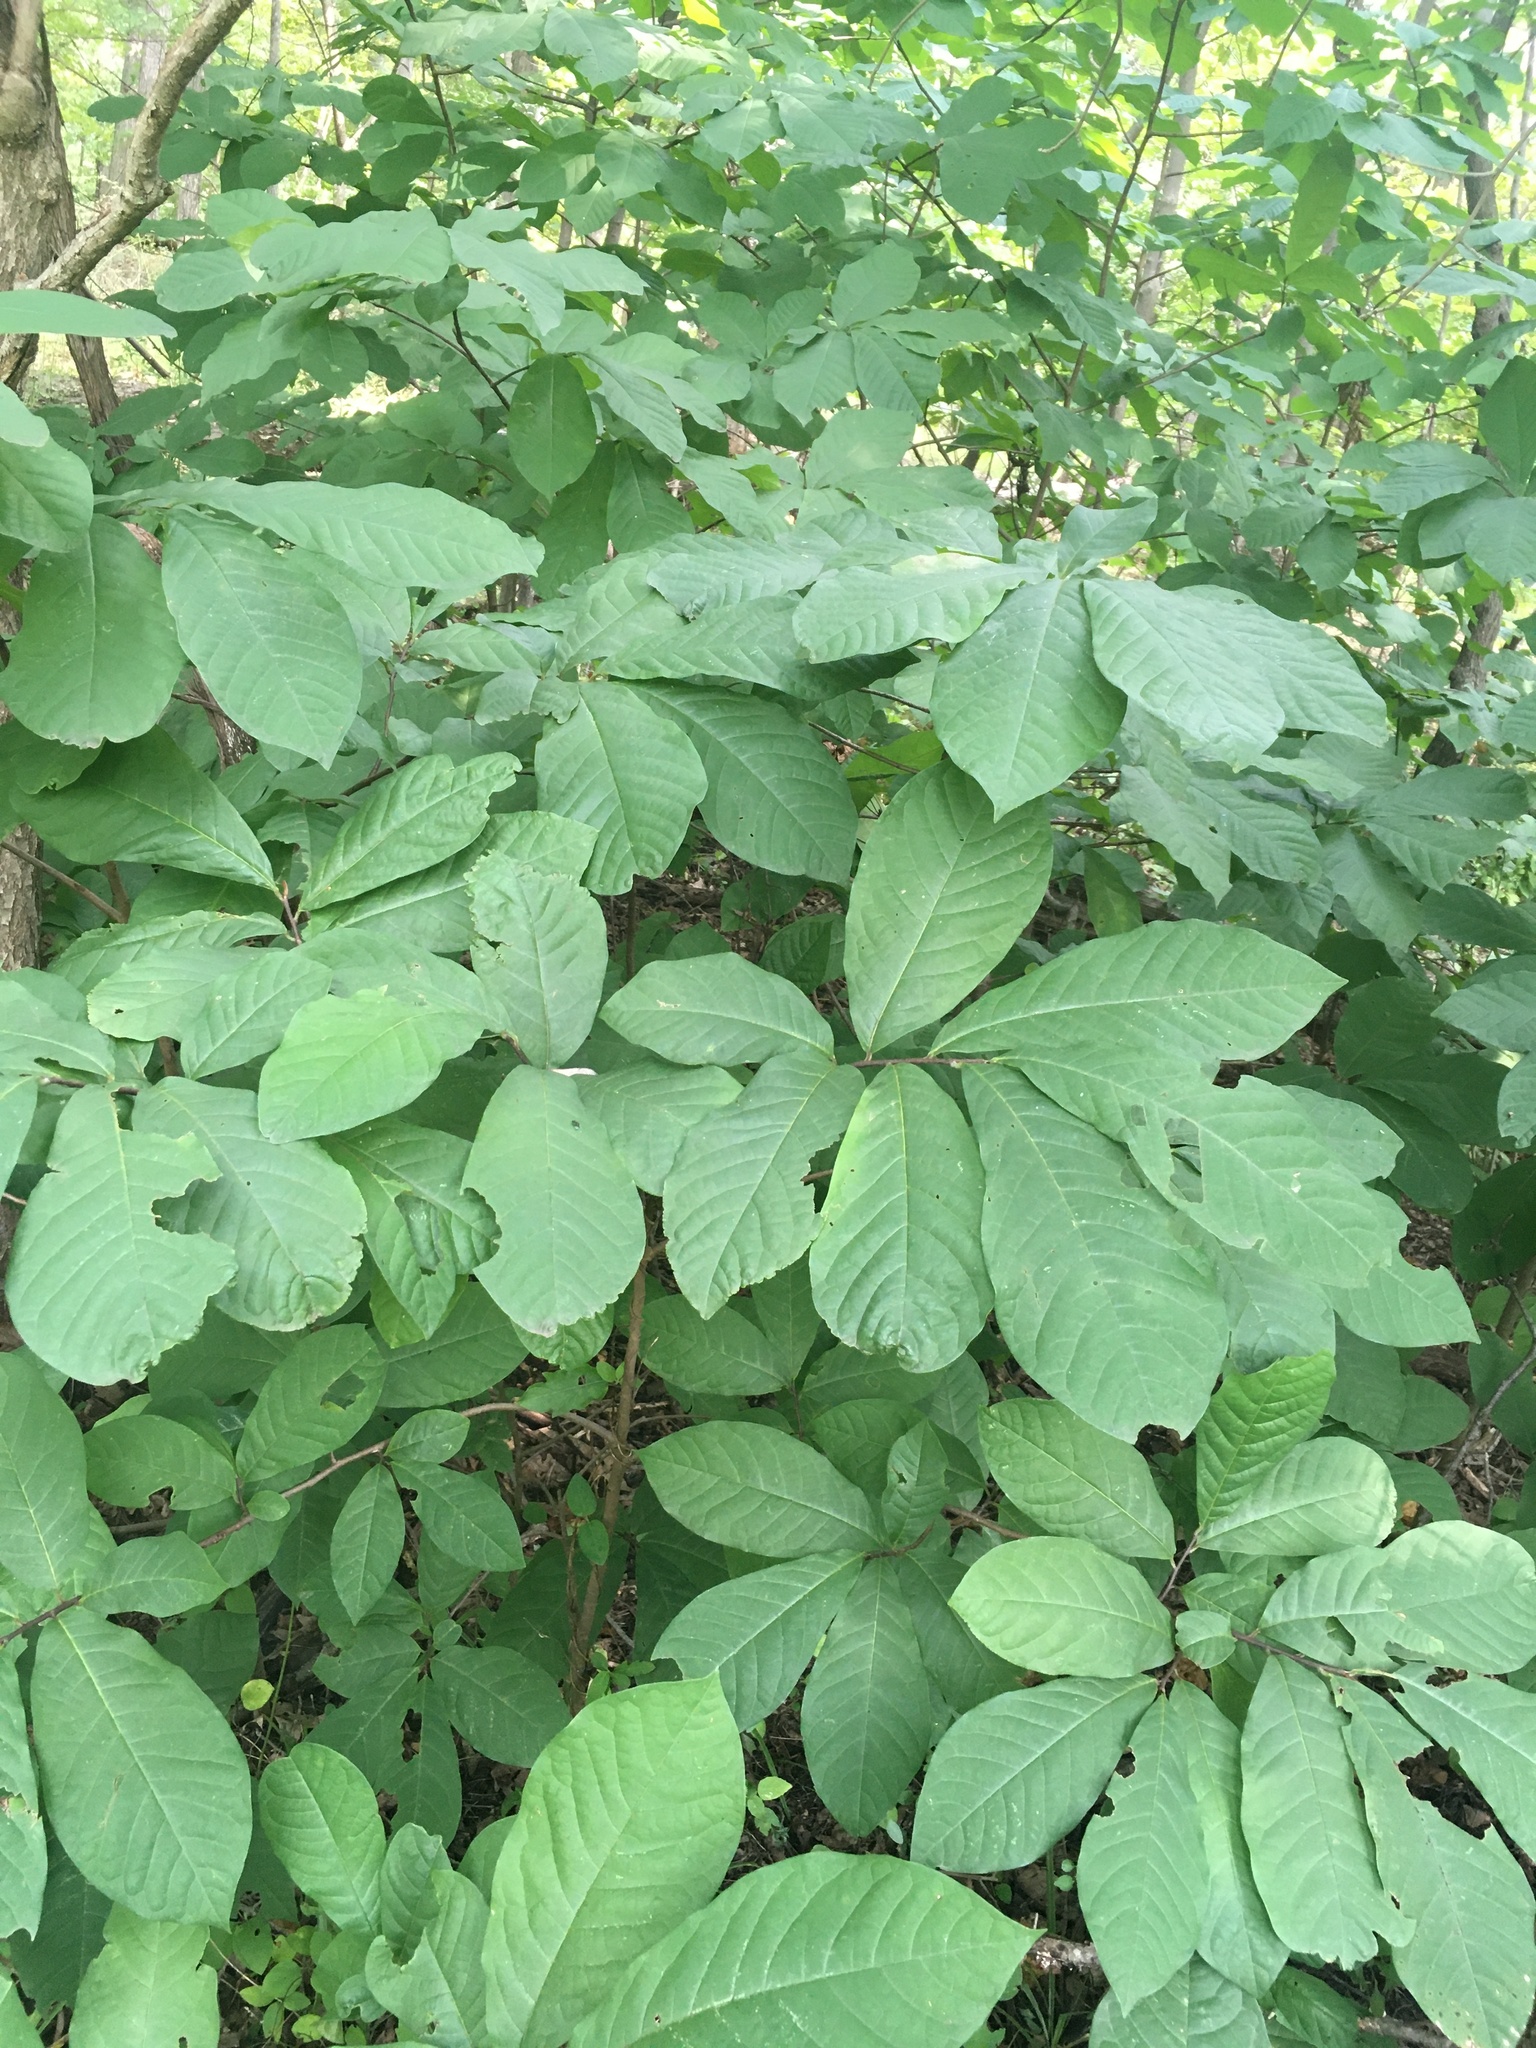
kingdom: Plantae
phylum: Tracheophyta
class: Magnoliopsida
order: Magnoliales
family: Annonaceae
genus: Asimina
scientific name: Asimina triloba
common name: Dog-banana
